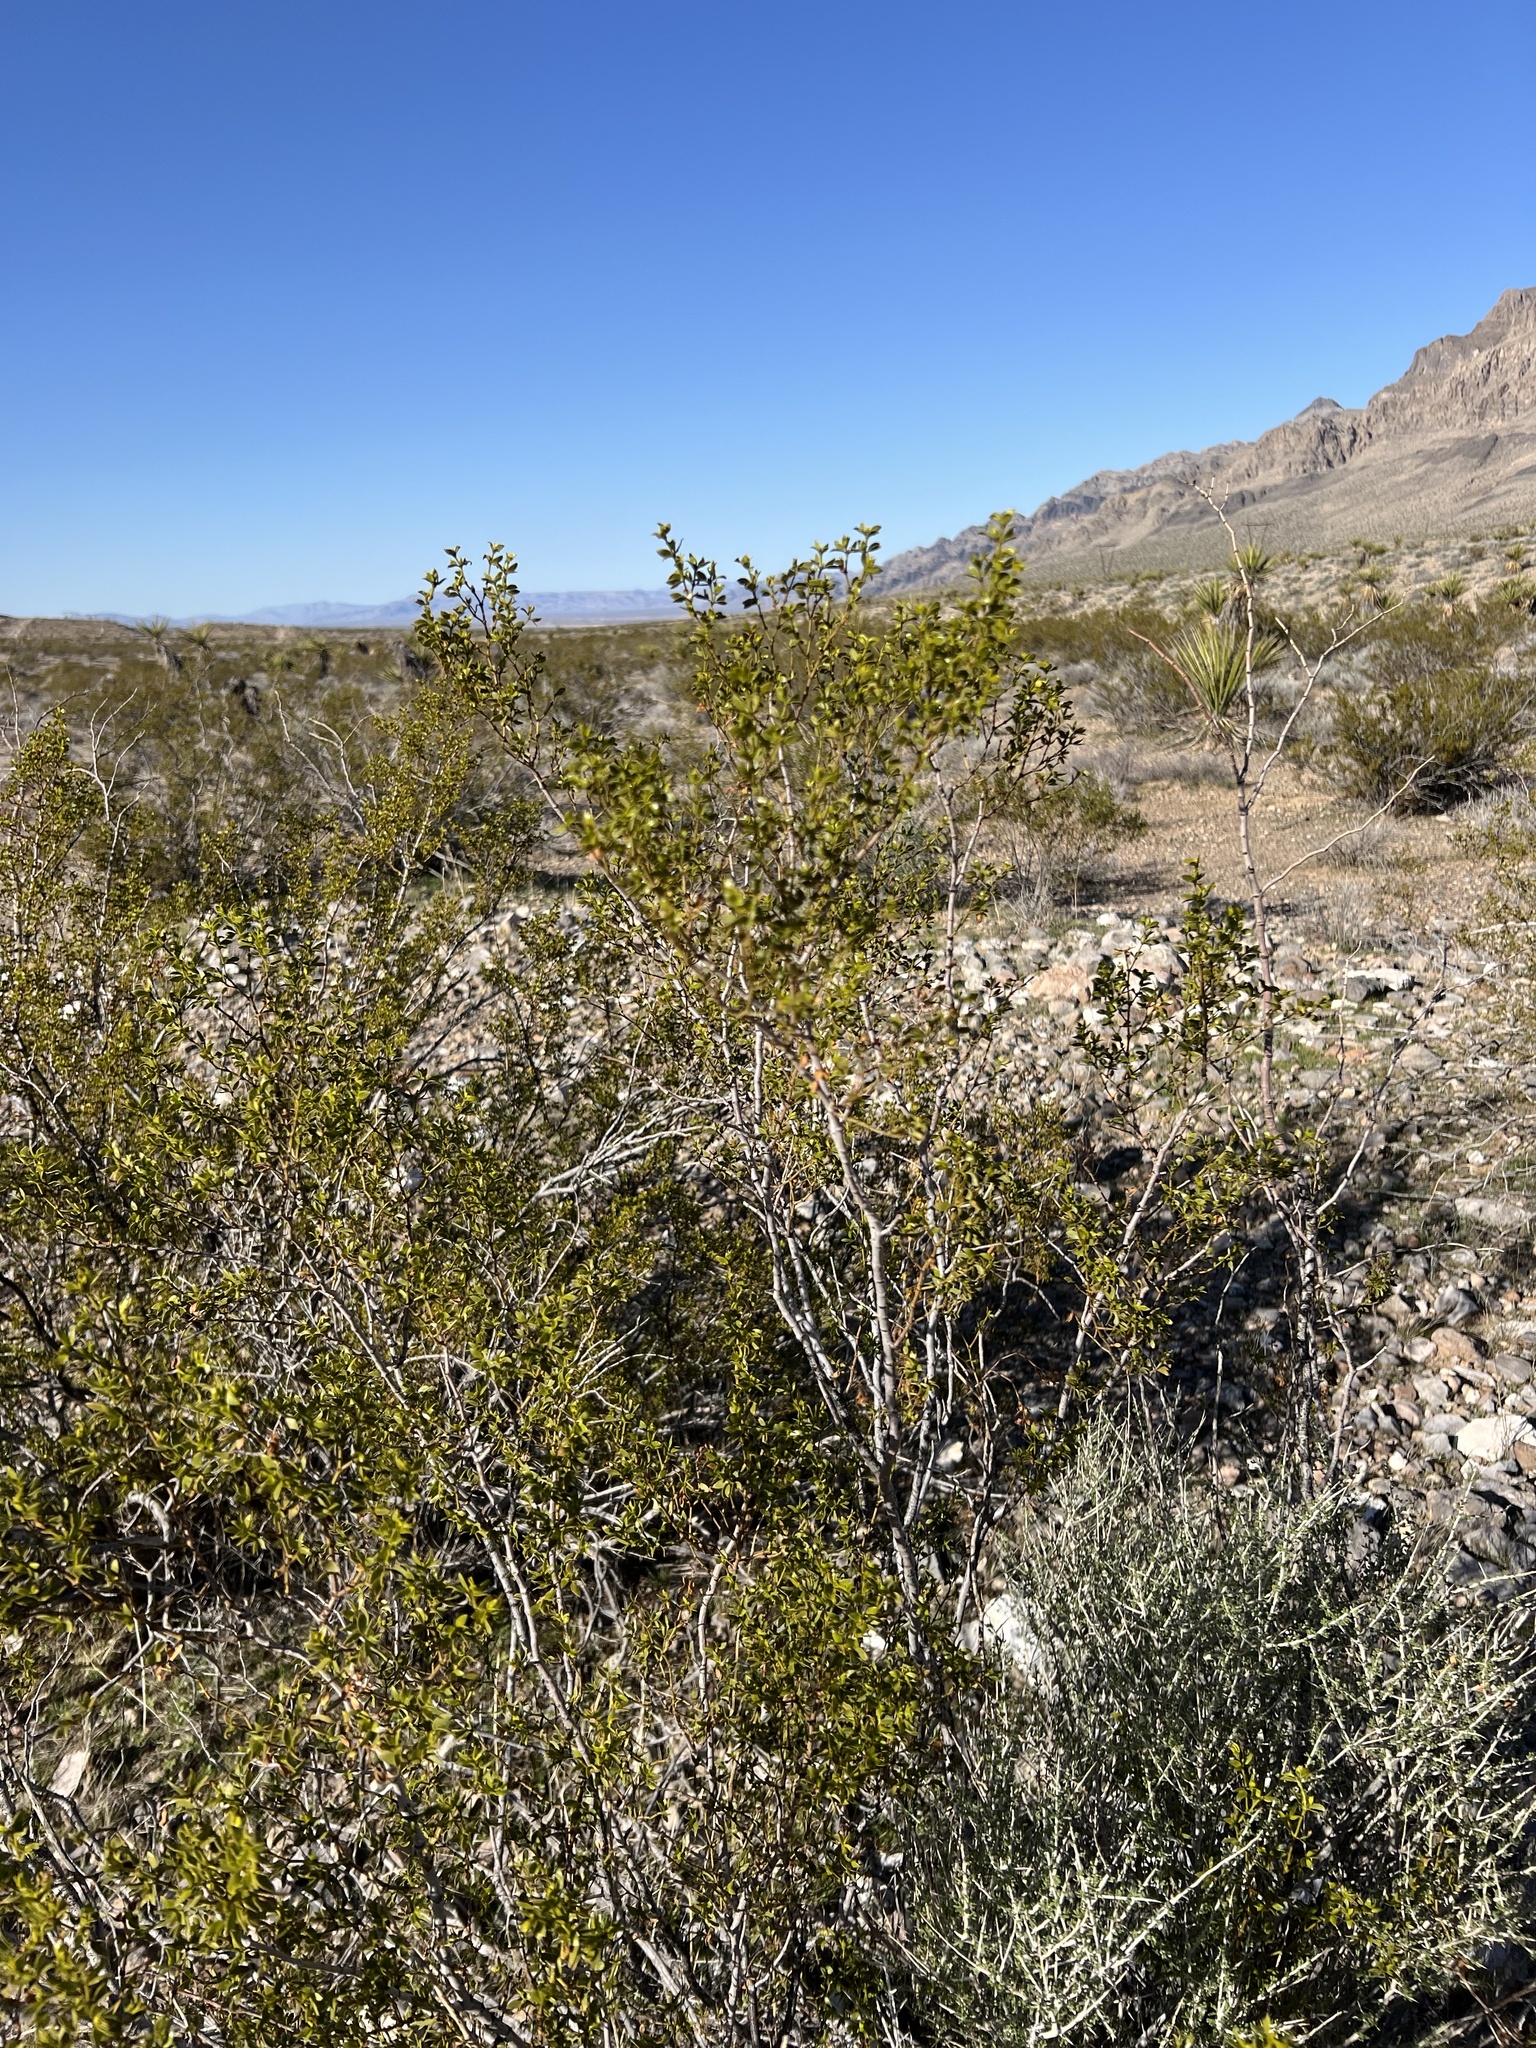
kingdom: Plantae
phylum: Tracheophyta
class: Magnoliopsida
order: Zygophyllales
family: Zygophyllaceae
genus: Larrea
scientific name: Larrea tridentata
